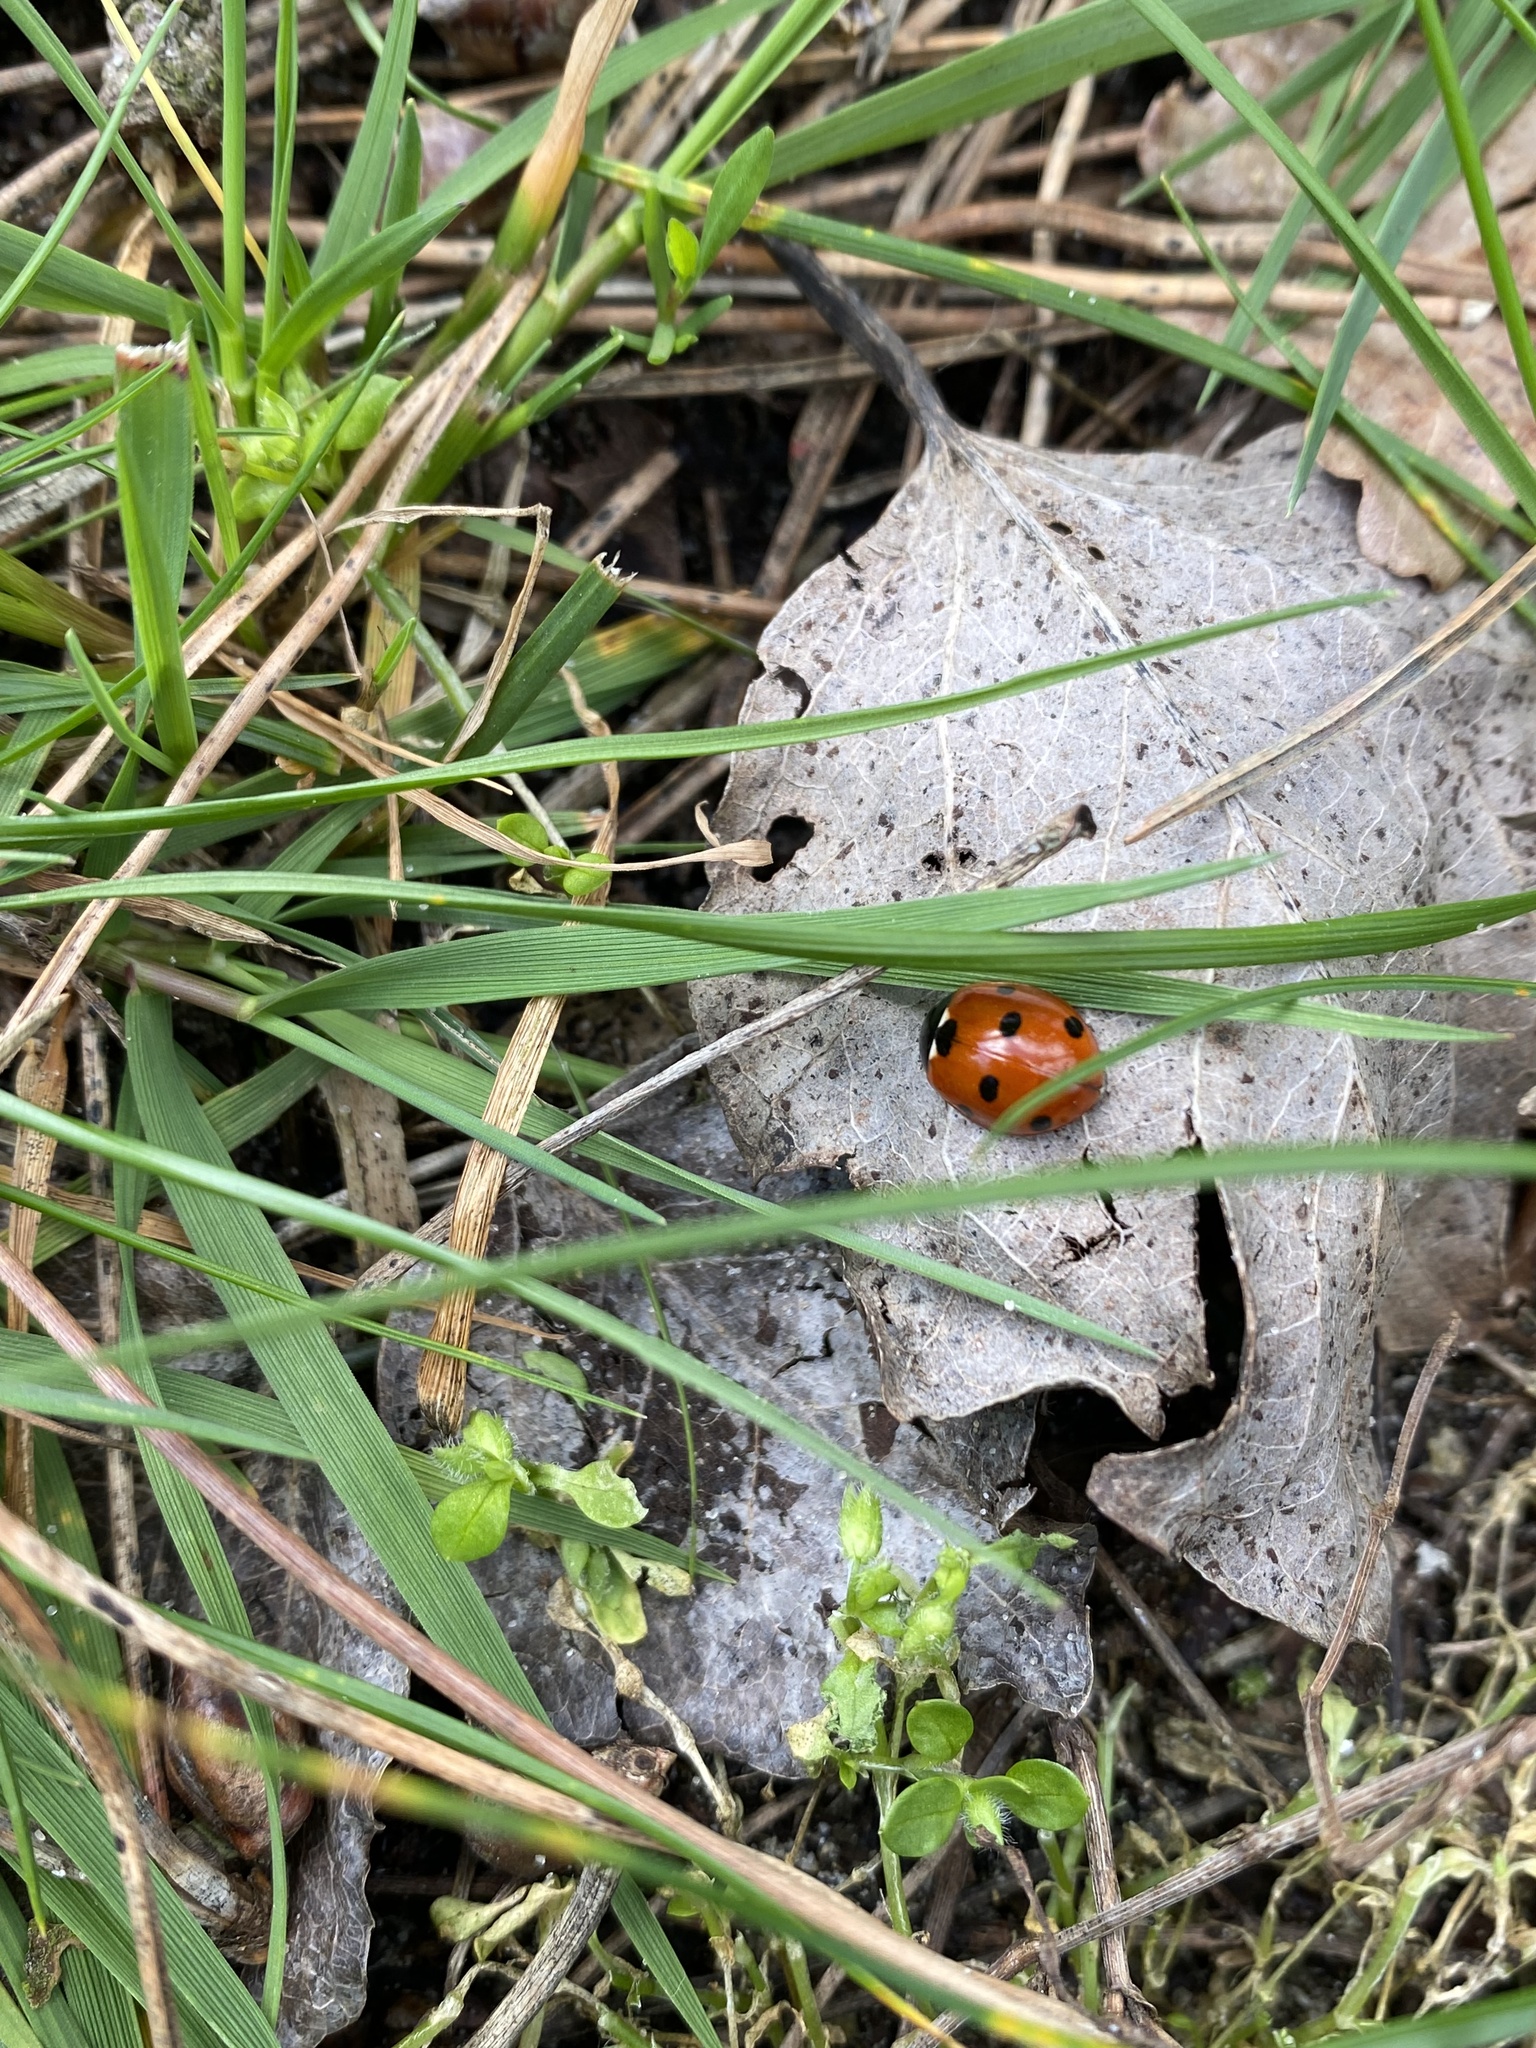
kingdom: Animalia
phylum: Arthropoda
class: Insecta
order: Coleoptera
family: Coccinellidae
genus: Coccinella
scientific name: Coccinella septempunctata
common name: Sevenspotted lady beetle
